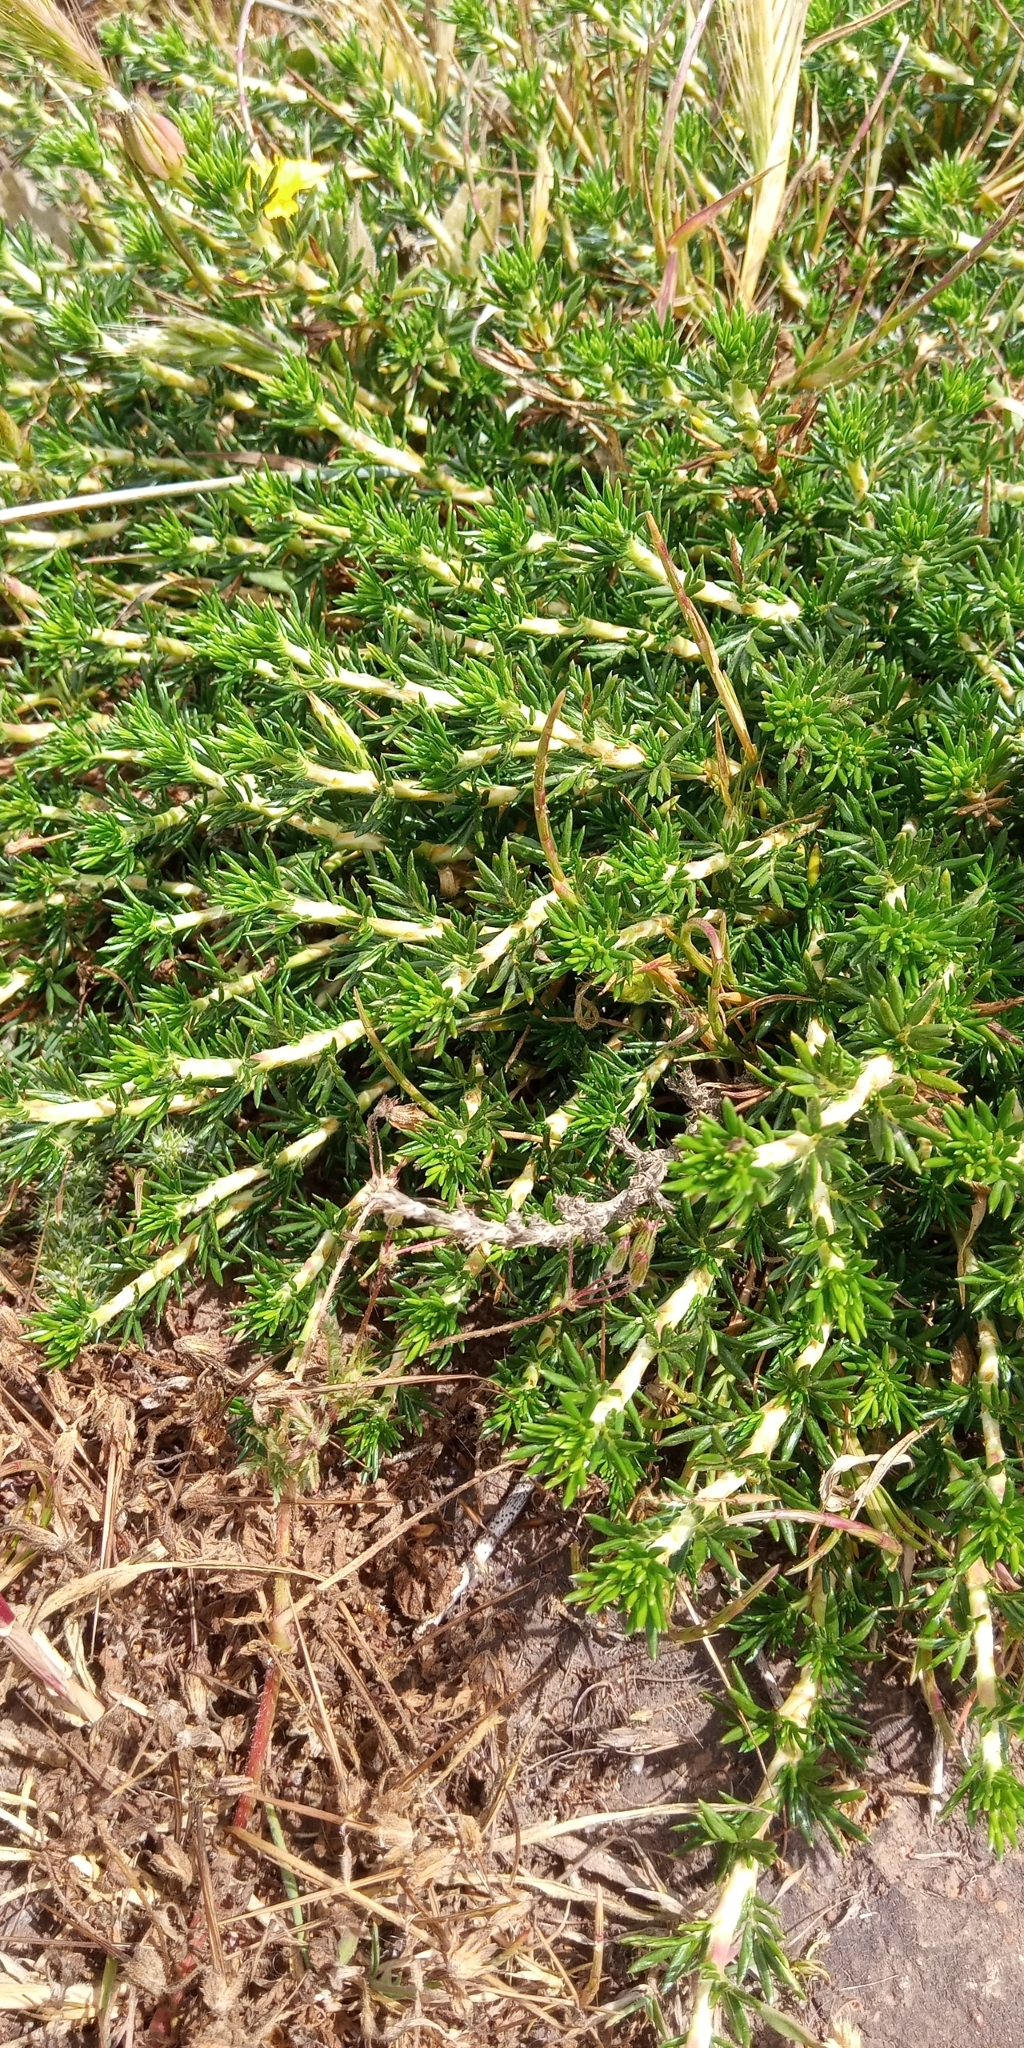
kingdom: Plantae
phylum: Tracheophyta
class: Magnoliopsida
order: Rosales
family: Rosaceae
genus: Margyricarpus
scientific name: Margyricarpus pinnatus
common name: Pearlfruit
